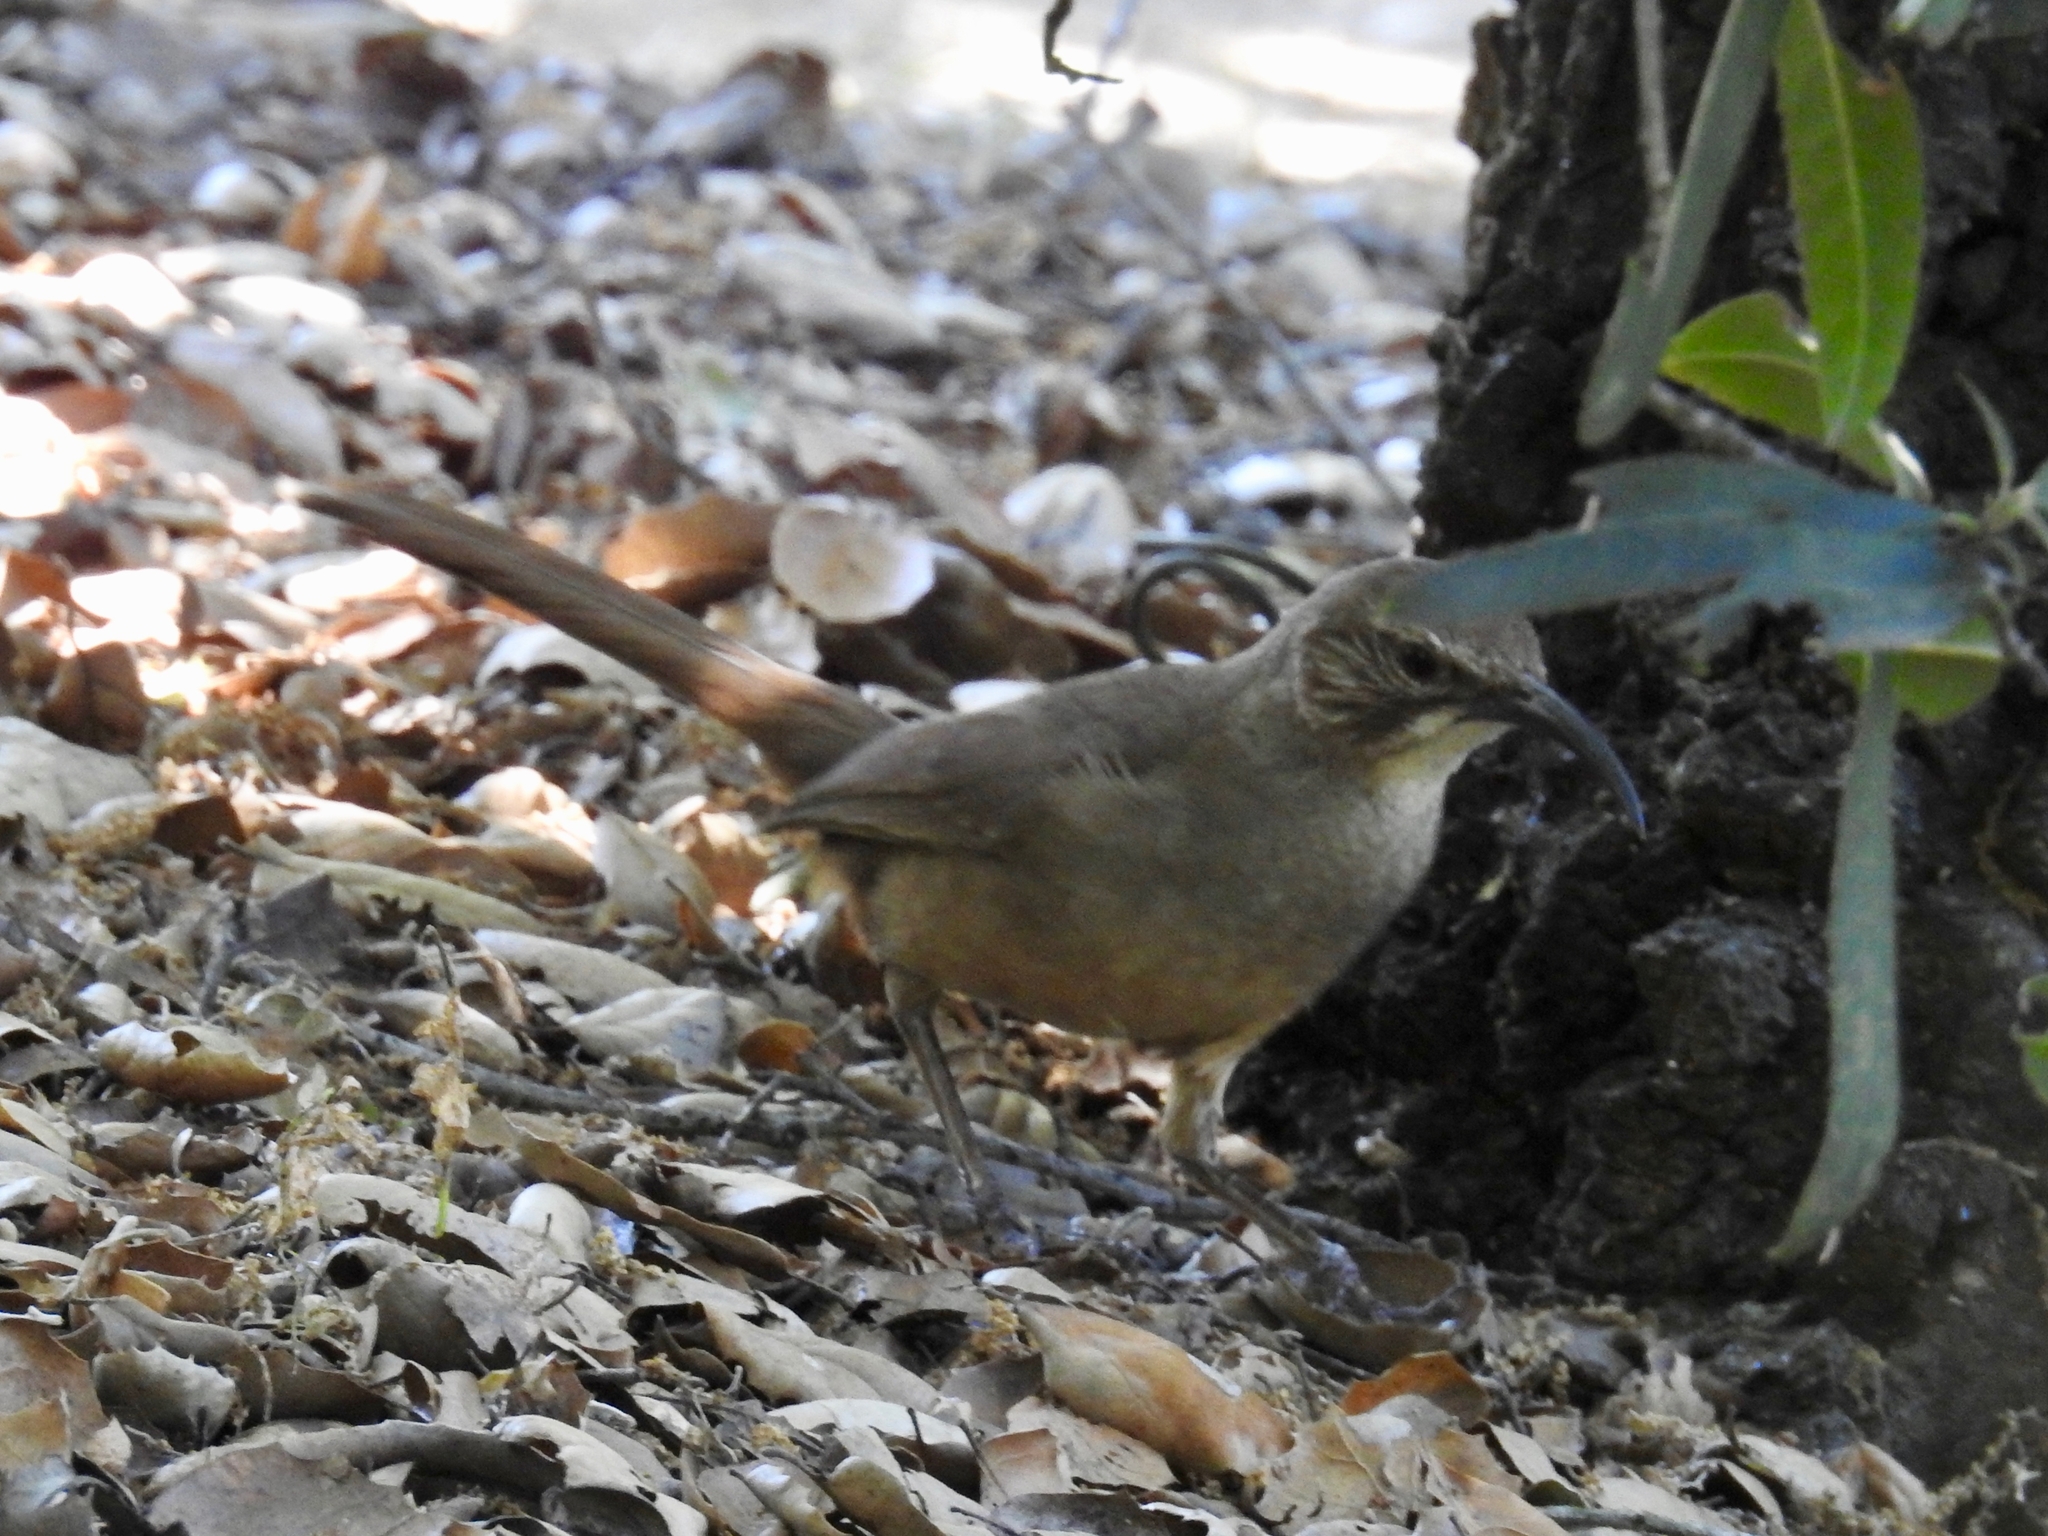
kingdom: Animalia
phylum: Chordata
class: Aves
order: Passeriformes
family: Mimidae
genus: Toxostoma
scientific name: Toxostoma redivivum
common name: California thrasher
